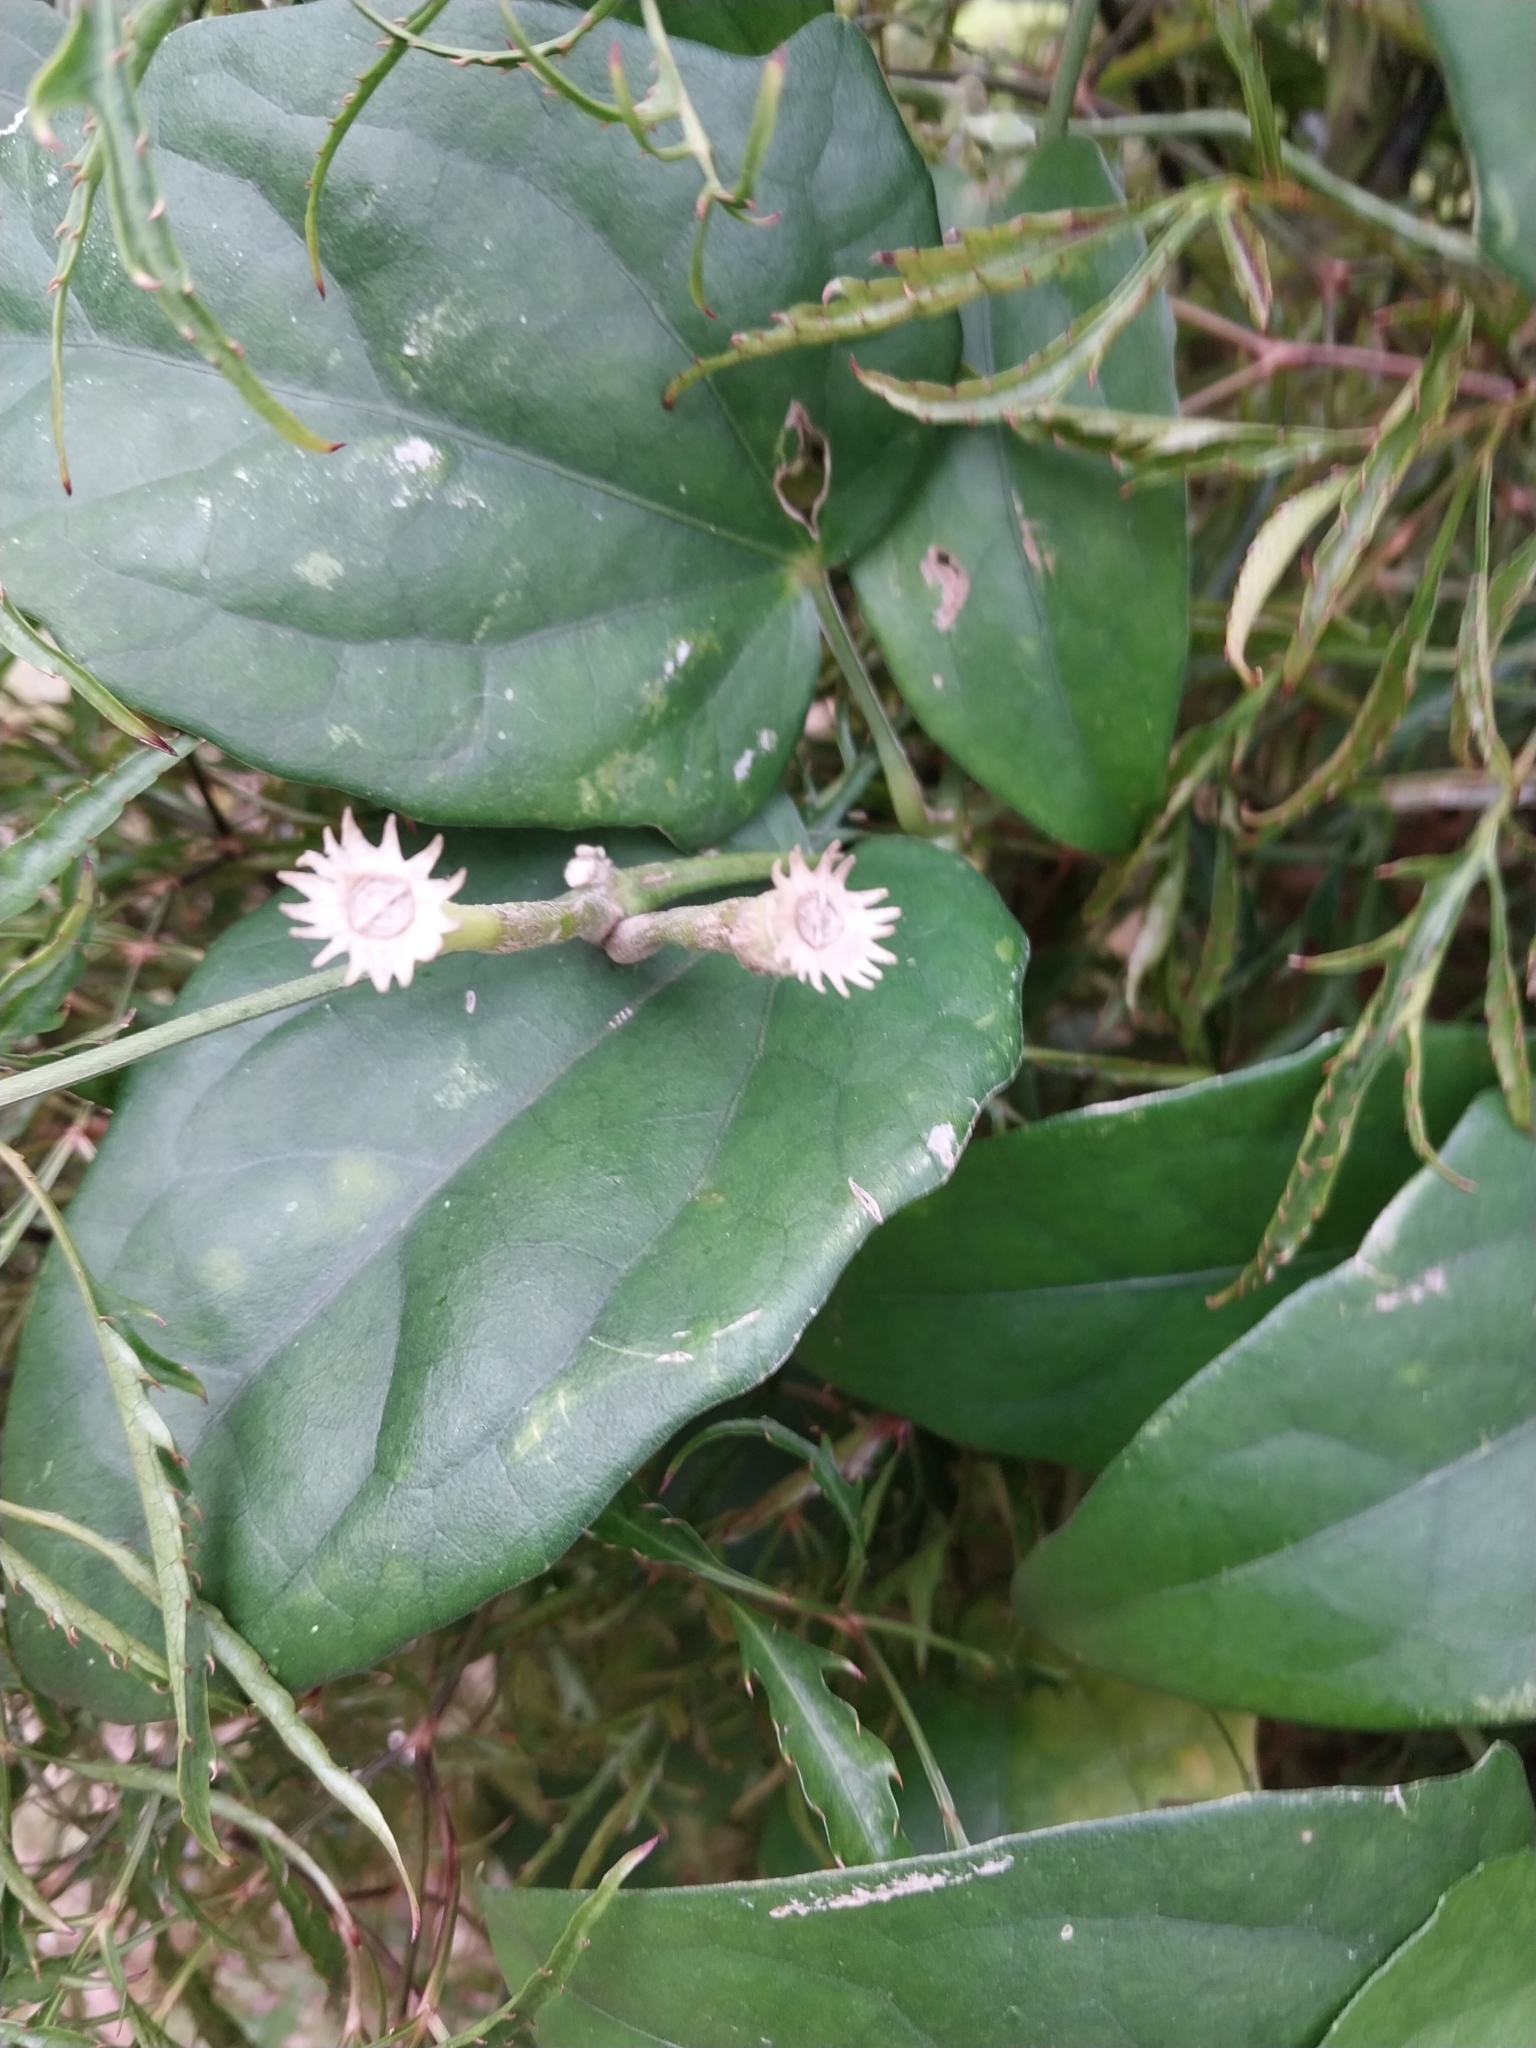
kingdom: Plantae
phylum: Tracheophyta
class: Magnoliopsida
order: Lamiales
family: Acanthaceae
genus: Thunbergia
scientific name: Thunbergia fragrans
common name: Whitelady
